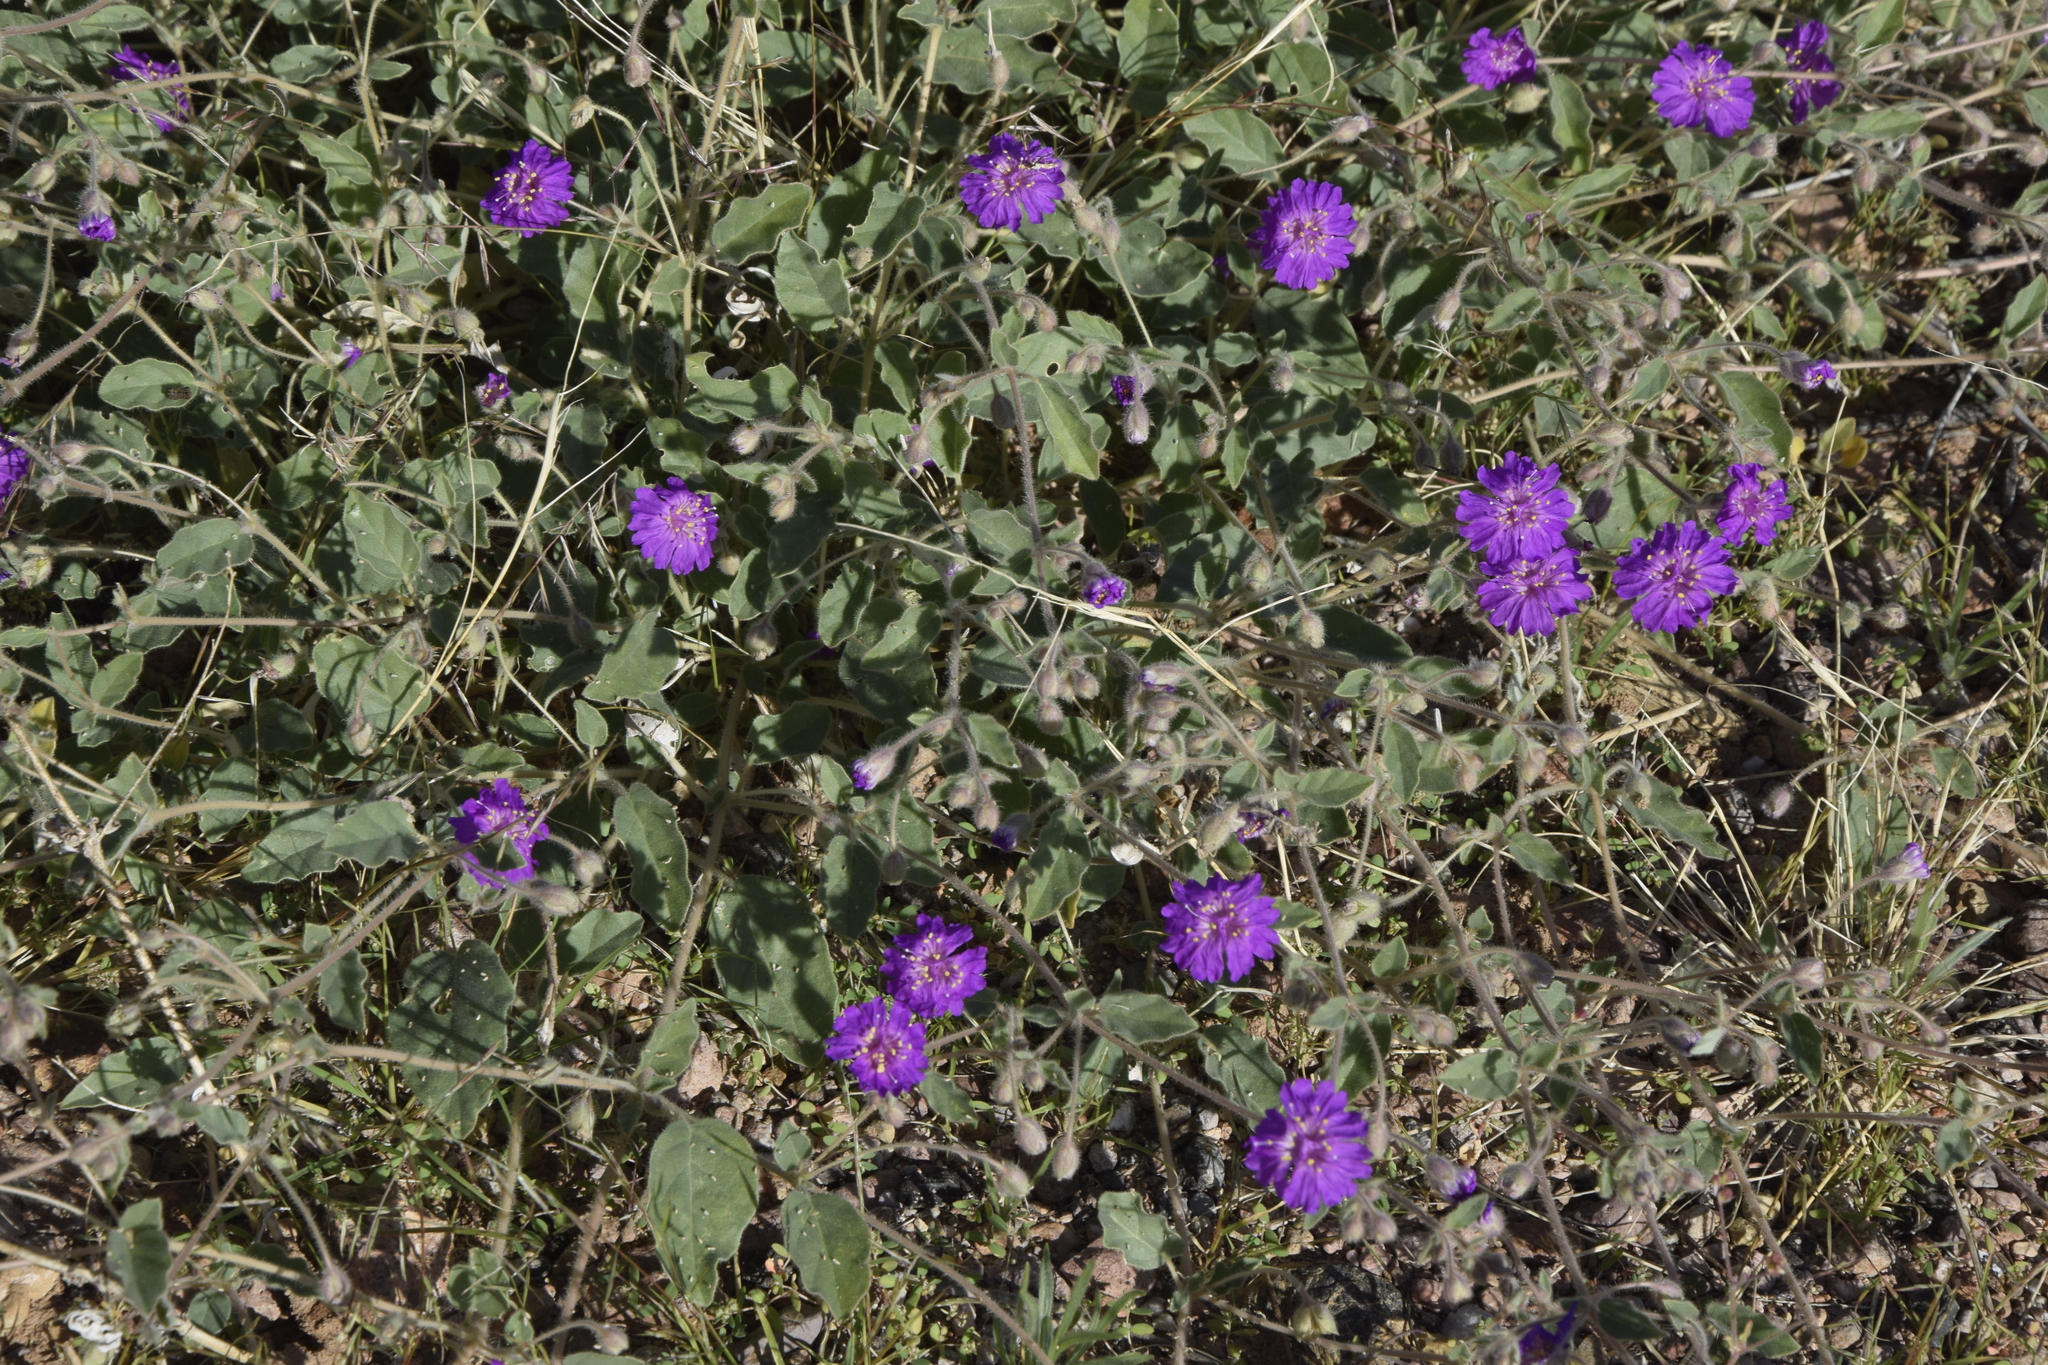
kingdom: Plantae
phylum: Tracheophyta
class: Magnoliopsida
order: Caryophyllales
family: Nyctaginaceae
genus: Allionia
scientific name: Allionia incarnata
